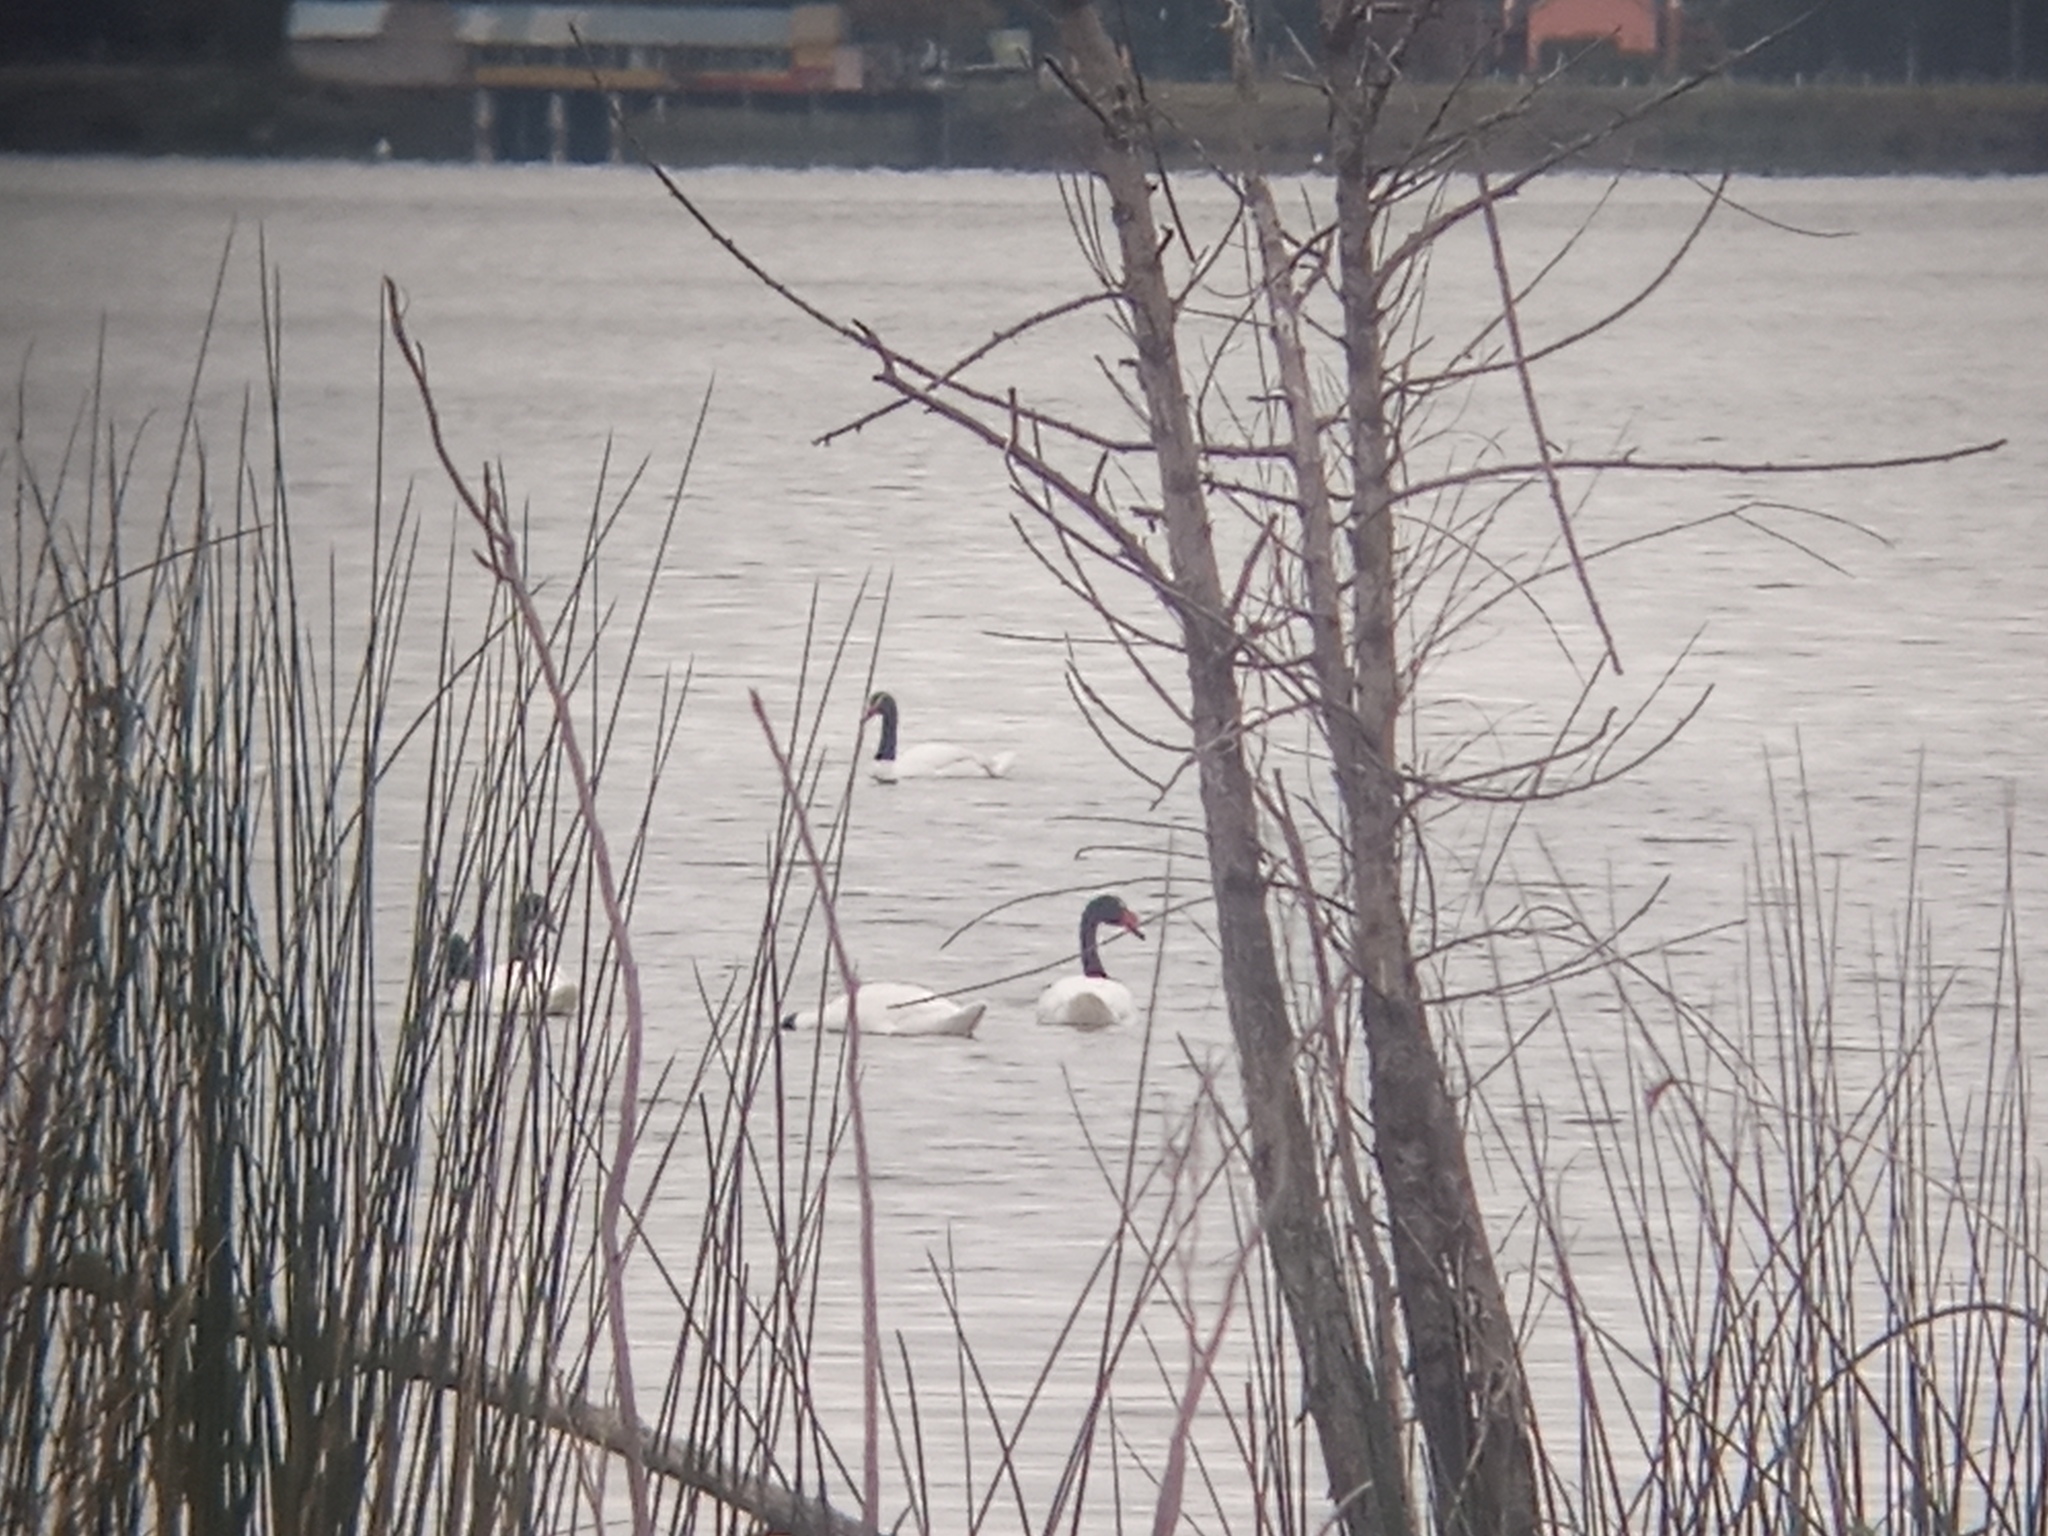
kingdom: Animalia
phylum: Chordata
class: Aves
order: Anseriformes
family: Anatidae
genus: Cygnus
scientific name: Cygnus melancoryphus
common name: Black-necked swan
